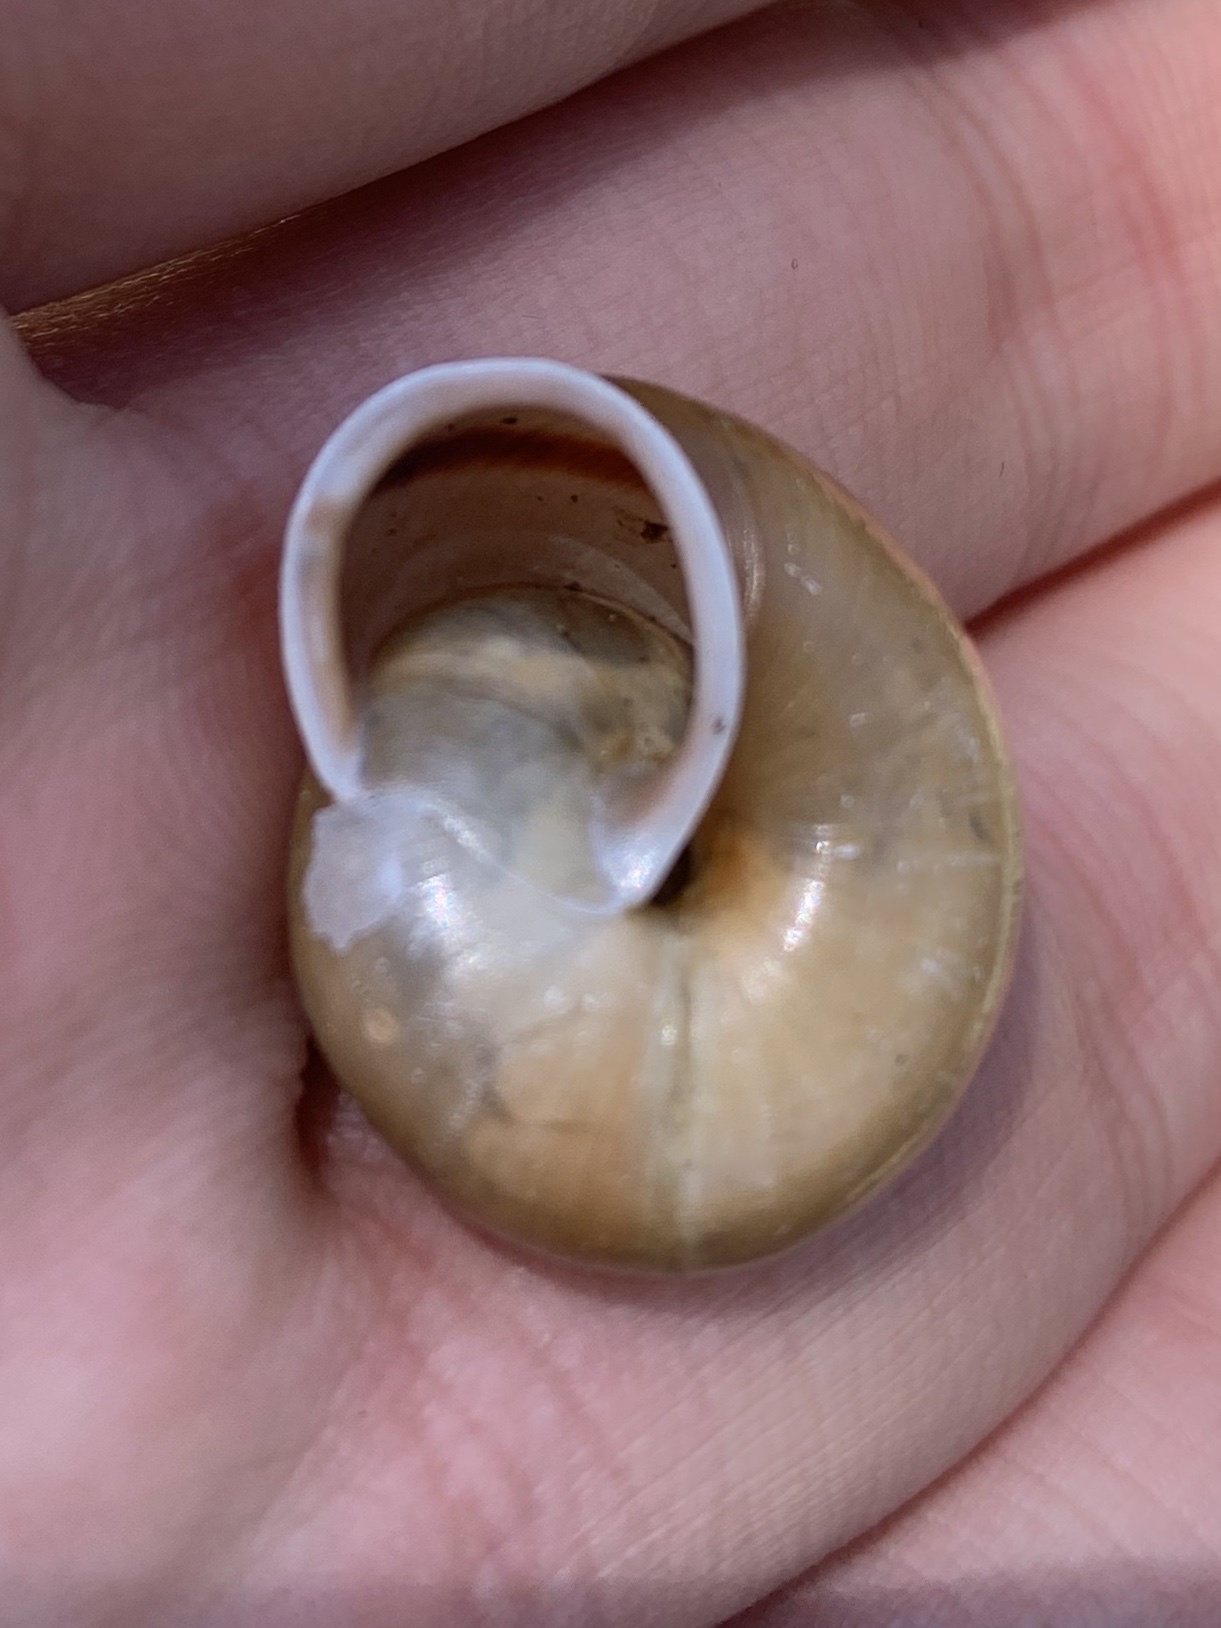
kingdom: Animalia
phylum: Mollusca
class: Gastropoda
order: Stylommatophora
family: Helicidae
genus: Chilostoma
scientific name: Chilostoma zonatum
